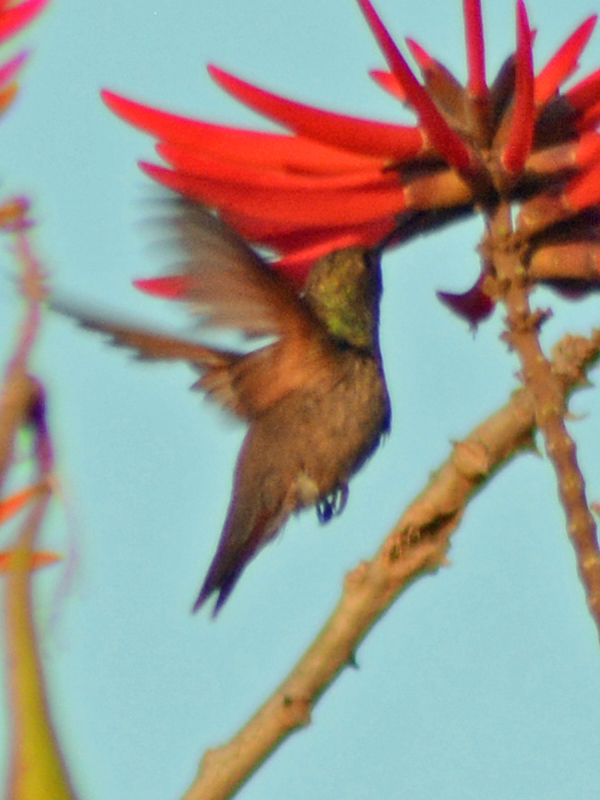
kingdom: Animalia
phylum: Chordata
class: Aves
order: Apodiformes
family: Trochilidae
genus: Saucerottia
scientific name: Saucerottia beryllina
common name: Berylline hummingbird
